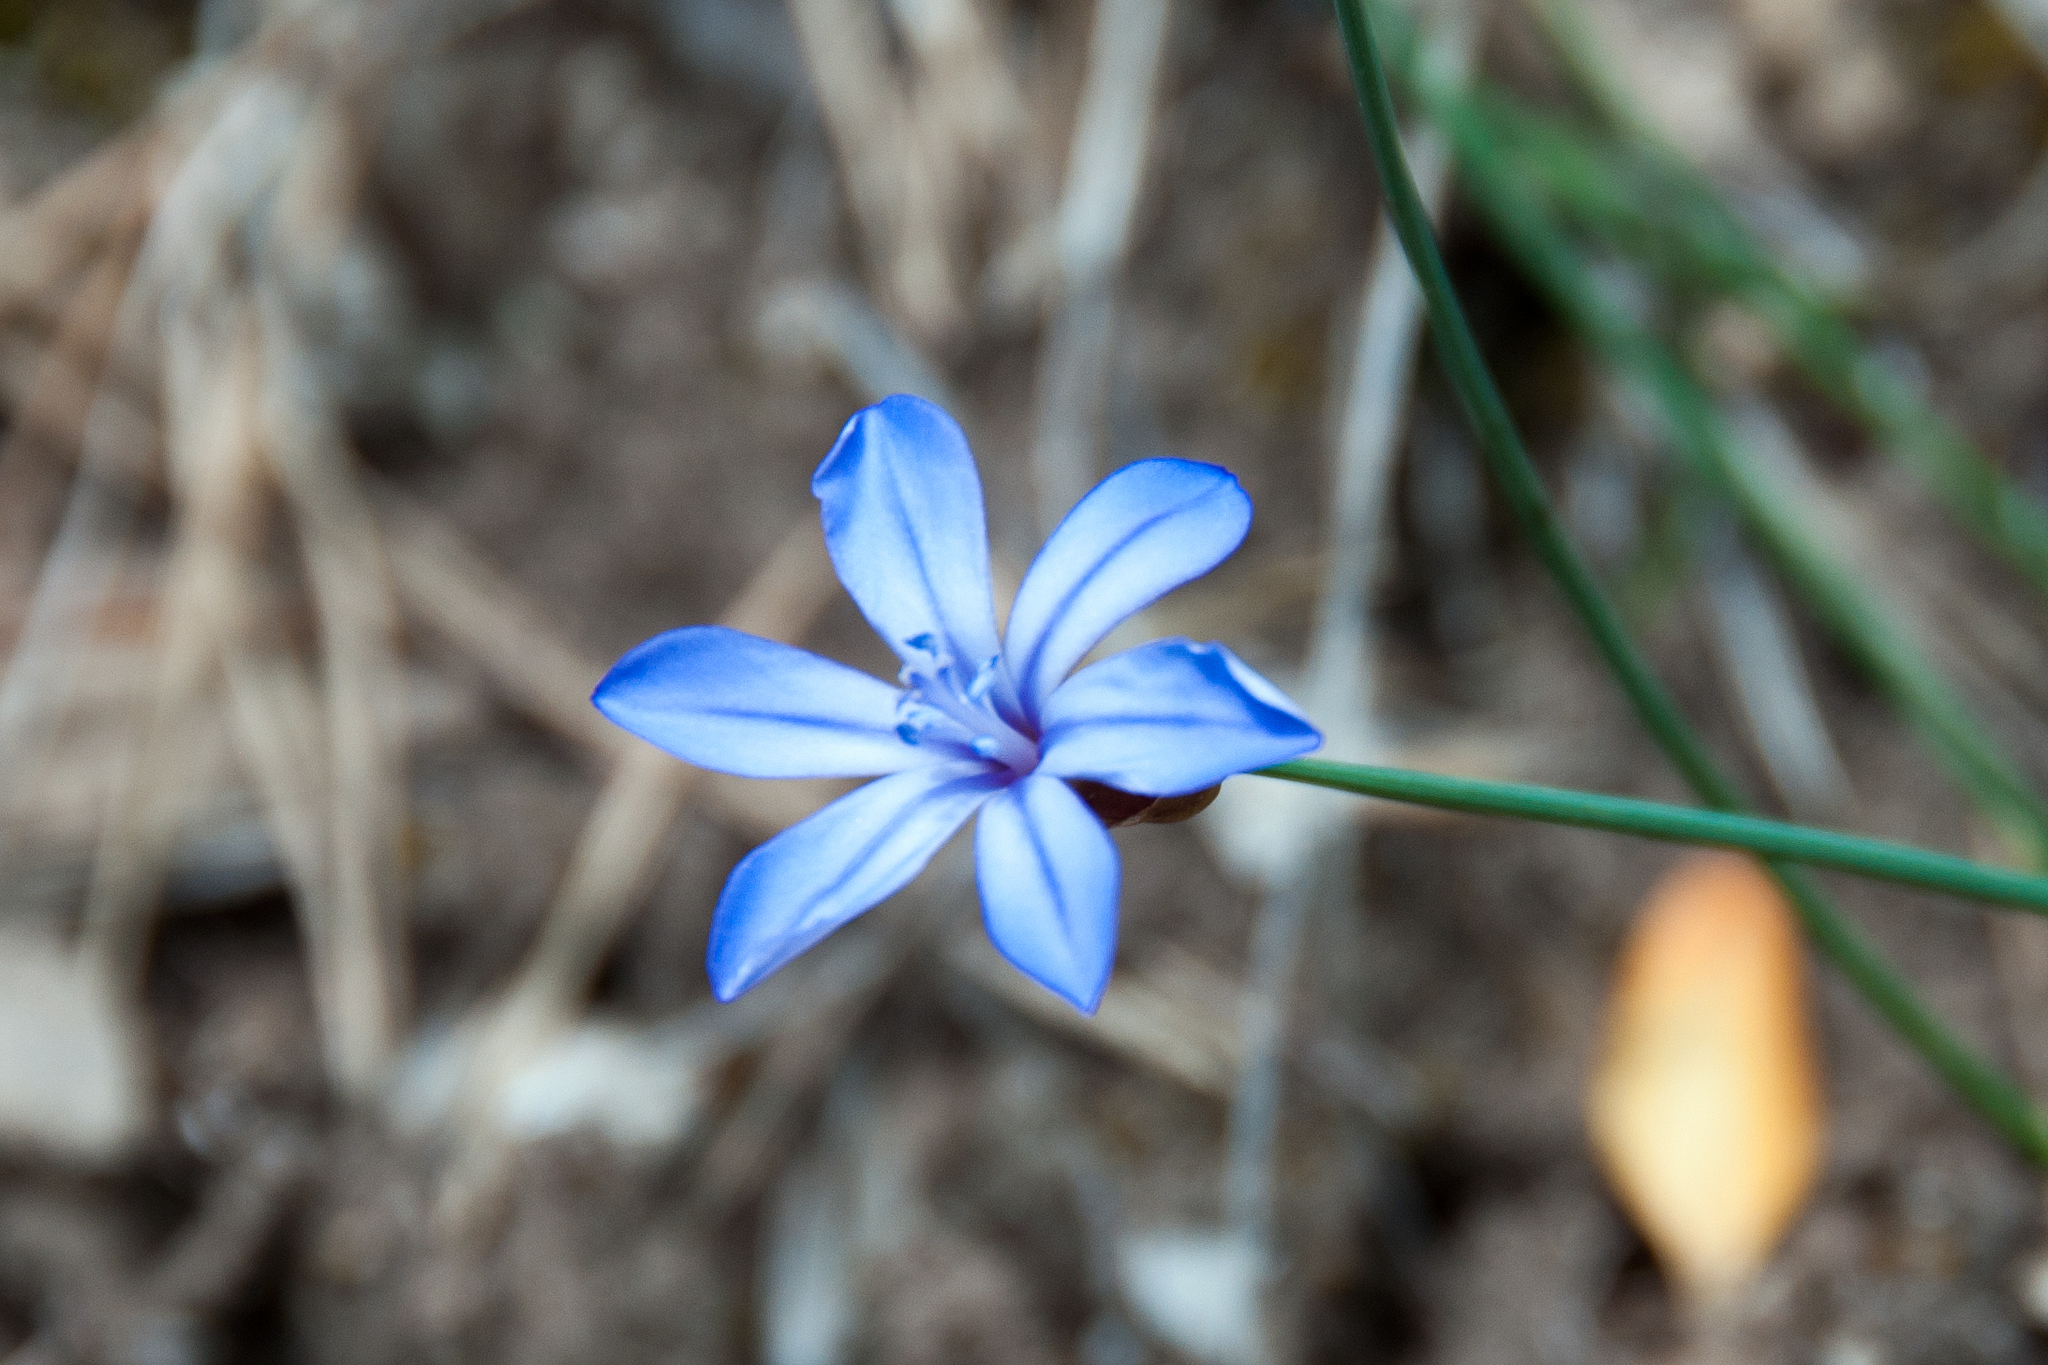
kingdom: Plantae
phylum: Tracheophyta
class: Liliopsida
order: Asparagales
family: Asparagaceae
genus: Aphyllanthes
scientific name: Aphyllanthes monspeliensis
